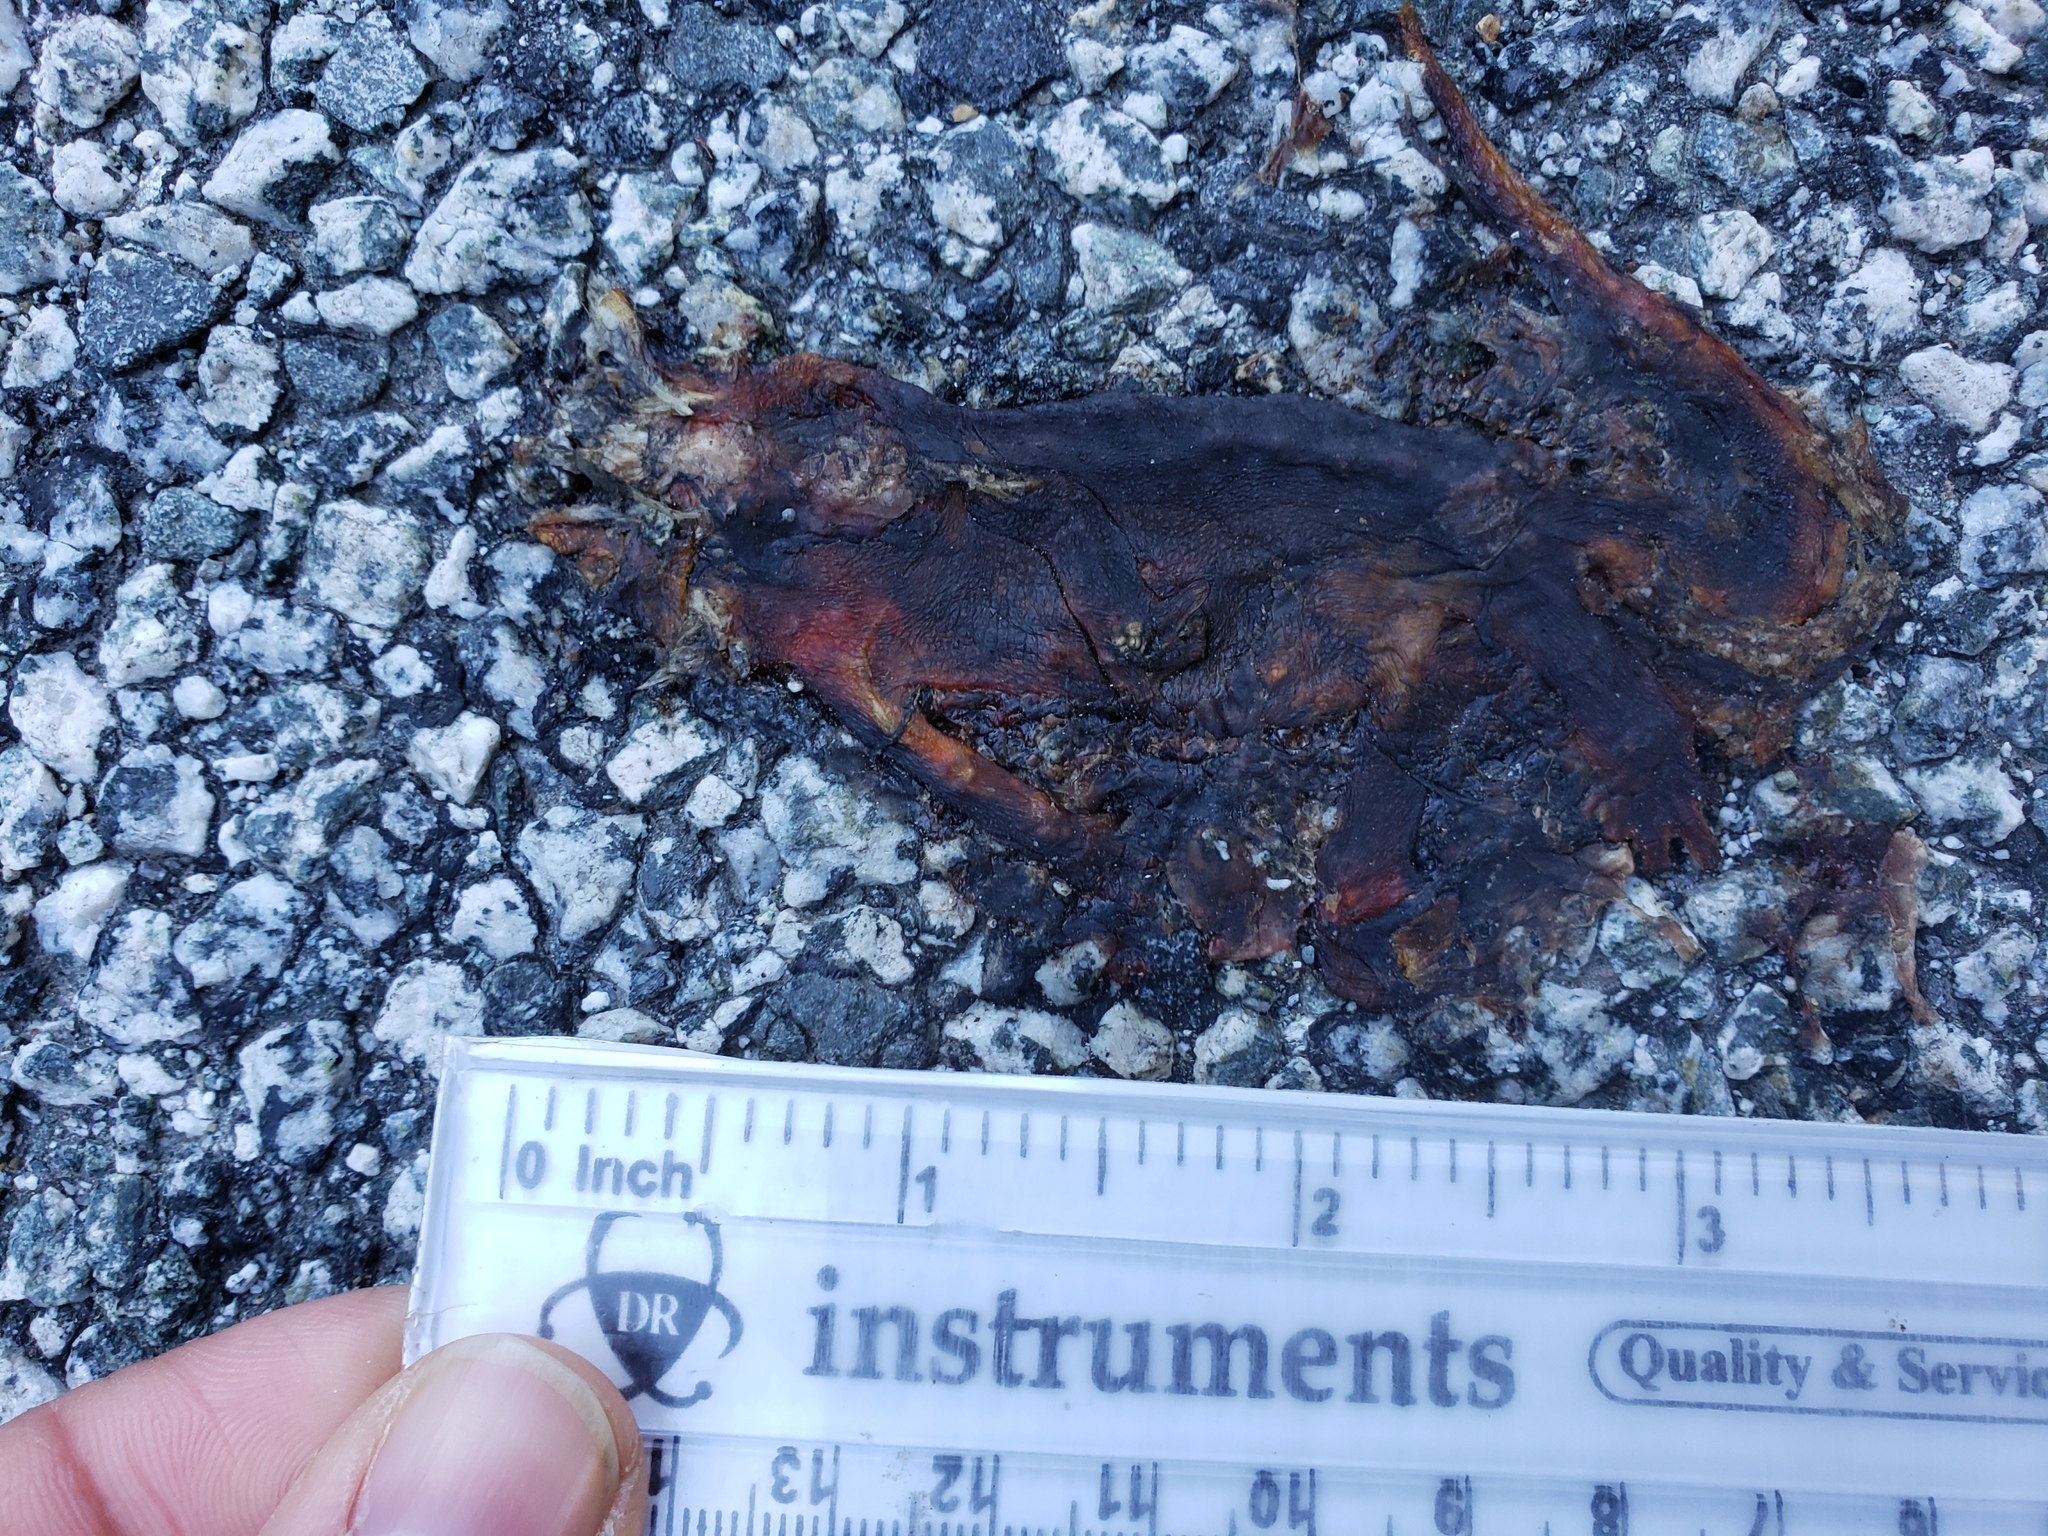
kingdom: Animalia
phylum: Chordata
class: Amphibia
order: Caudata
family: Salamandridae
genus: Taricha
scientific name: Taricha
